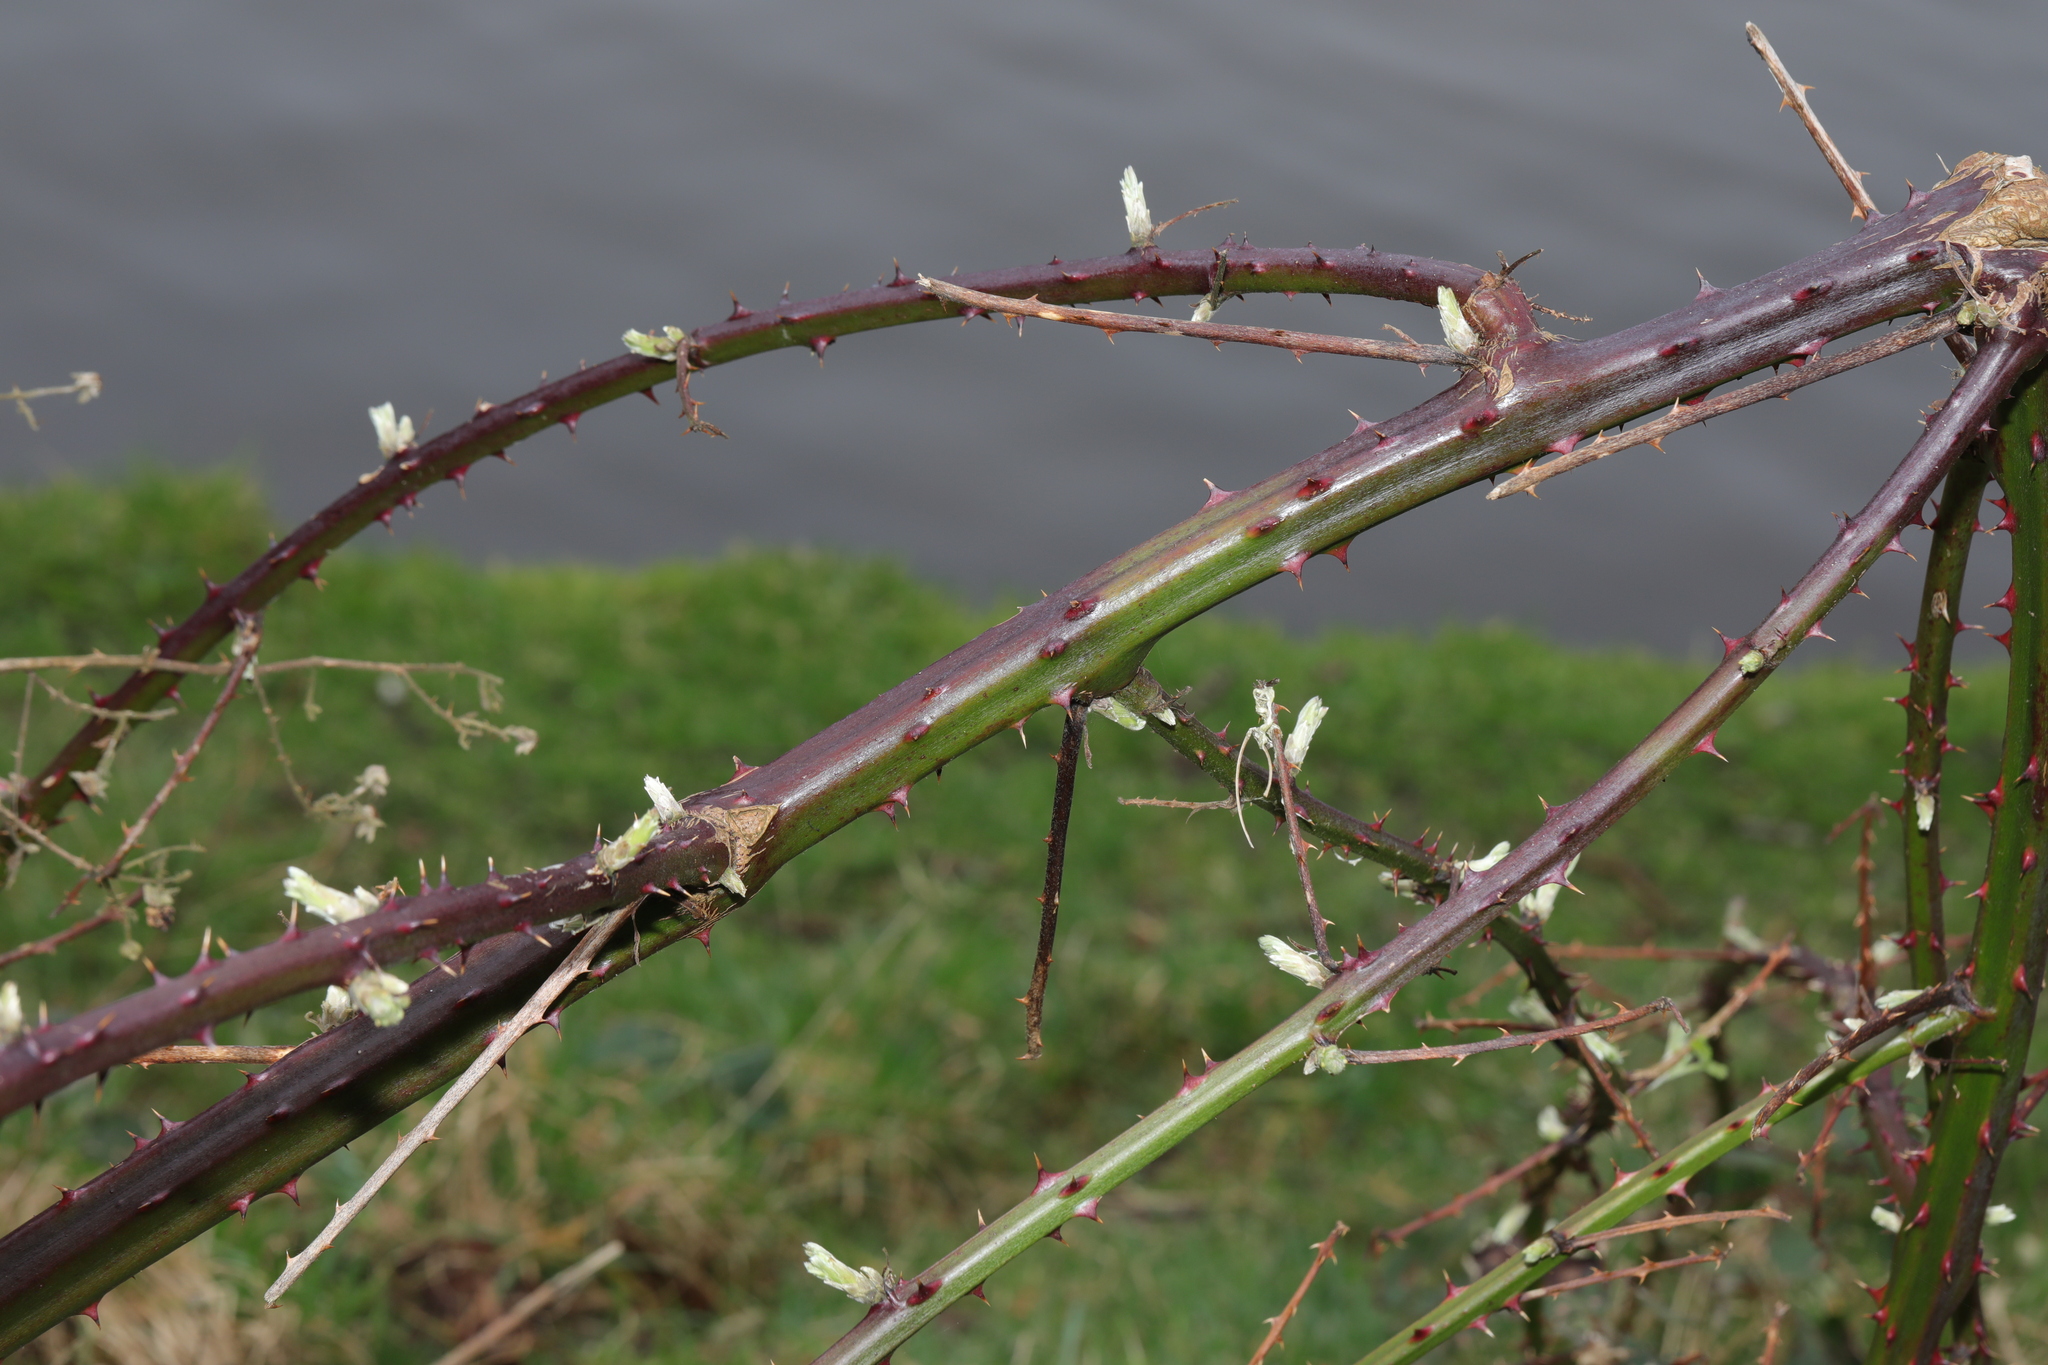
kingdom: Plantae
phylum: Tracheophyta
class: Magnoliopsida
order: Rosales
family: Rosaceae
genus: Rubus
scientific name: Rubus armeniacus
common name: Himalayan blackberry
